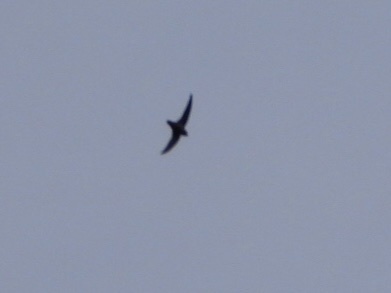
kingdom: Animalia
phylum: Chordata
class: Aves
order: Apodiformes
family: Apodidae
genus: Chaetura
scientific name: Chaetura vauxi
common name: Vaux's swift
